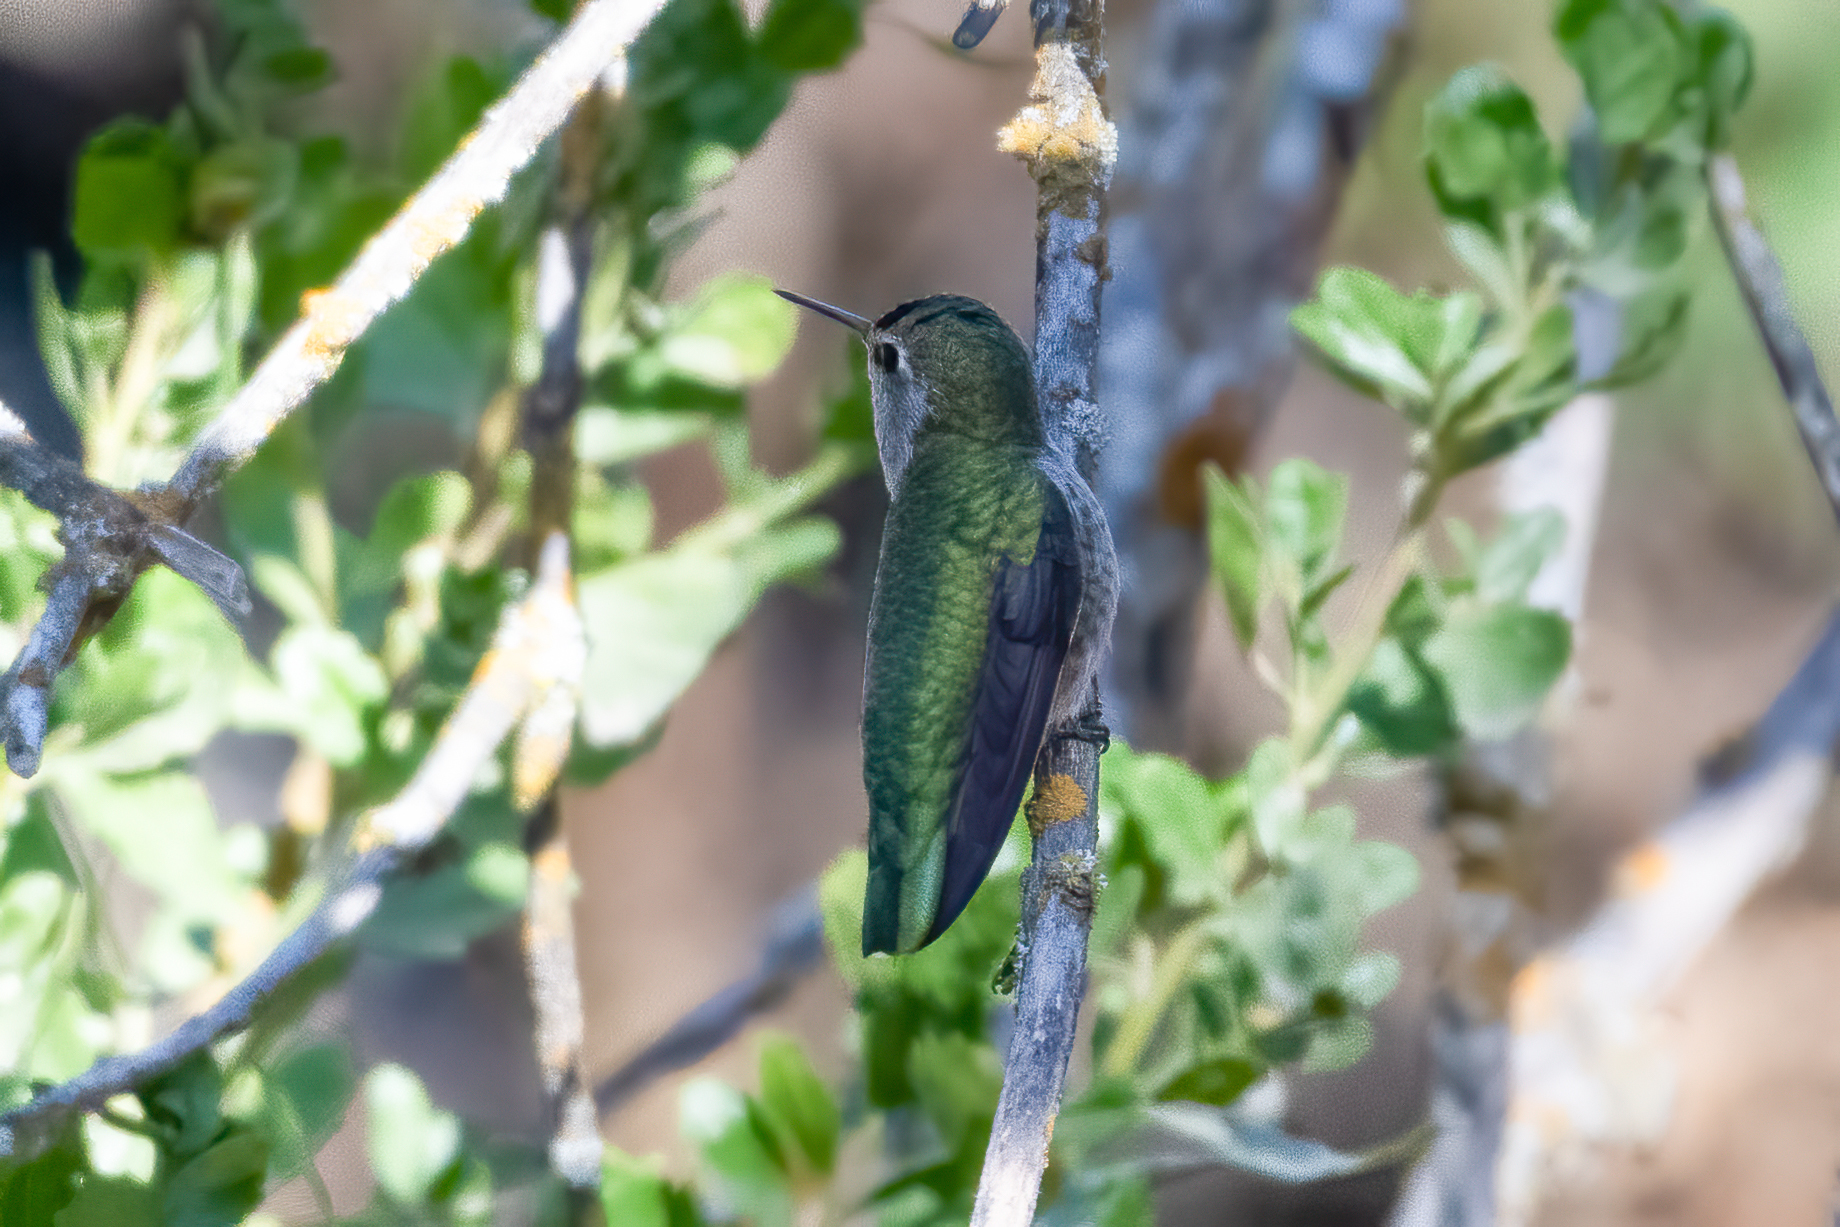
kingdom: Animalia
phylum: Chordata
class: Aves
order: Apodiformes
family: Trochilidae
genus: Calypte
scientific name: Calypte anna
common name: Anna's hummingbird
